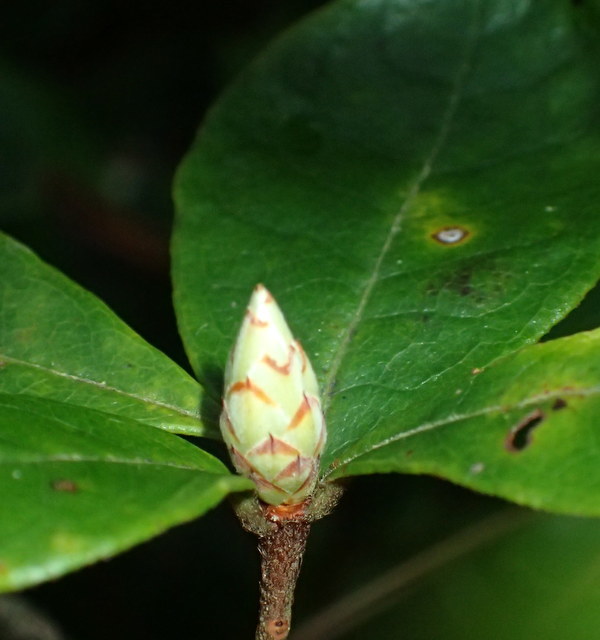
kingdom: Plantae
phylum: Tracheophyta
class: Magnoliopsida
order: Ericales
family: Ericaceae
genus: Rhododendron
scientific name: Rhododendron serrulatum
